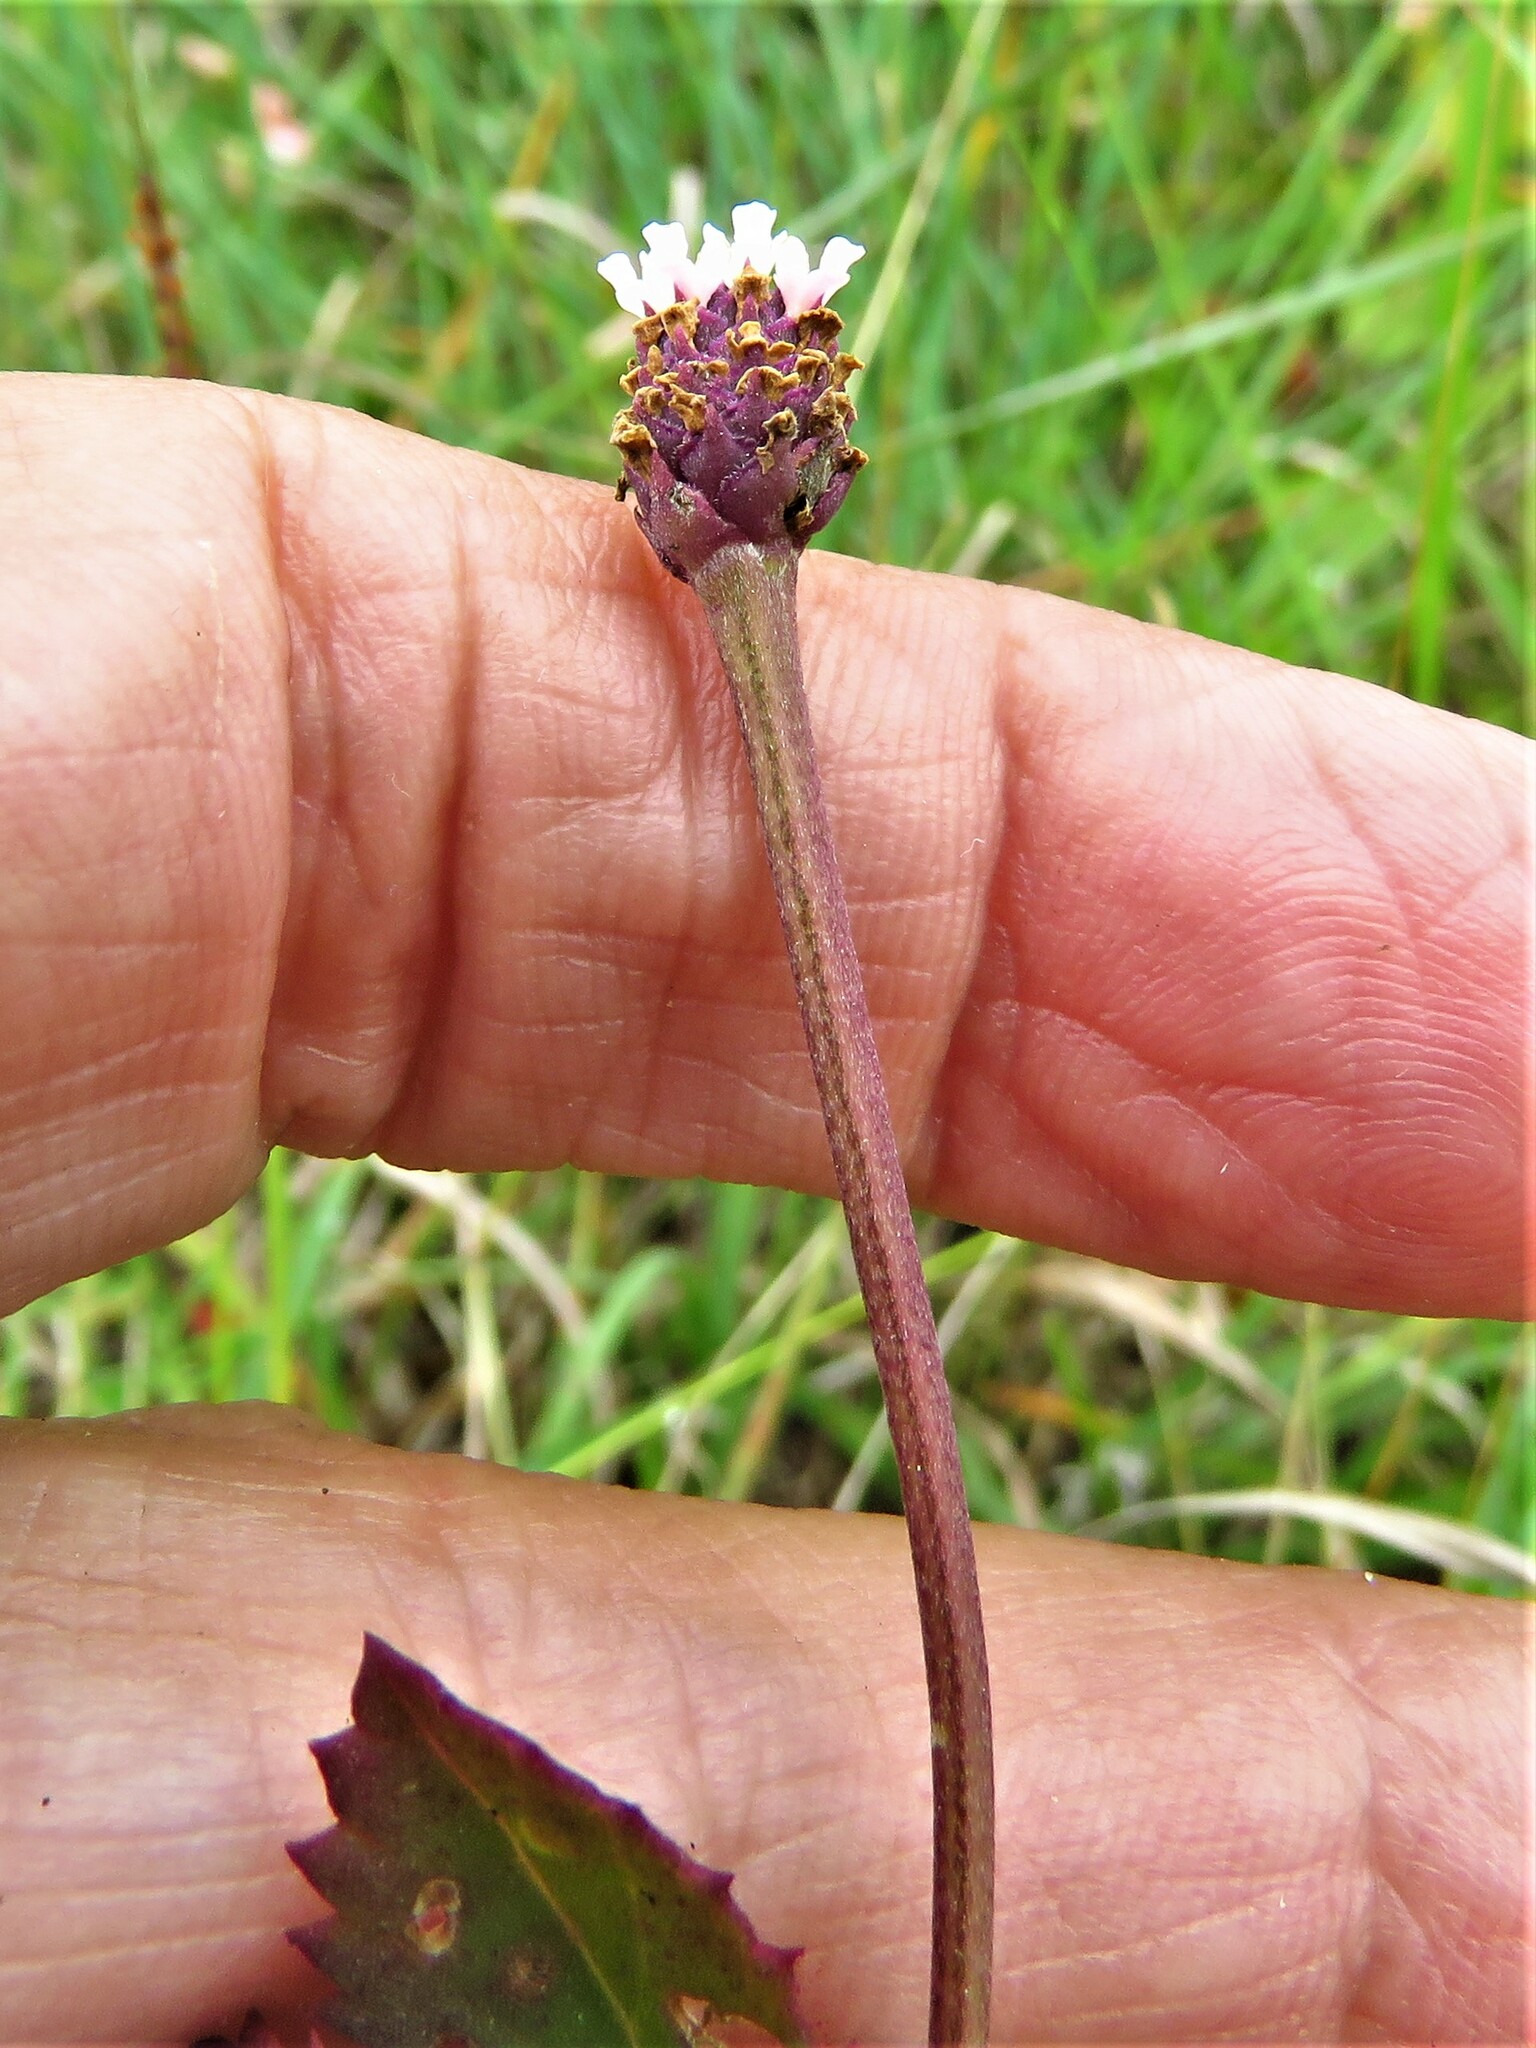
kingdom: Plantae
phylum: Tracheophyta
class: Magnoliopsida
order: Lamiales
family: Verbenaceae
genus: Phyla
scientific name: Phyla nodiflora
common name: Frogfruit
